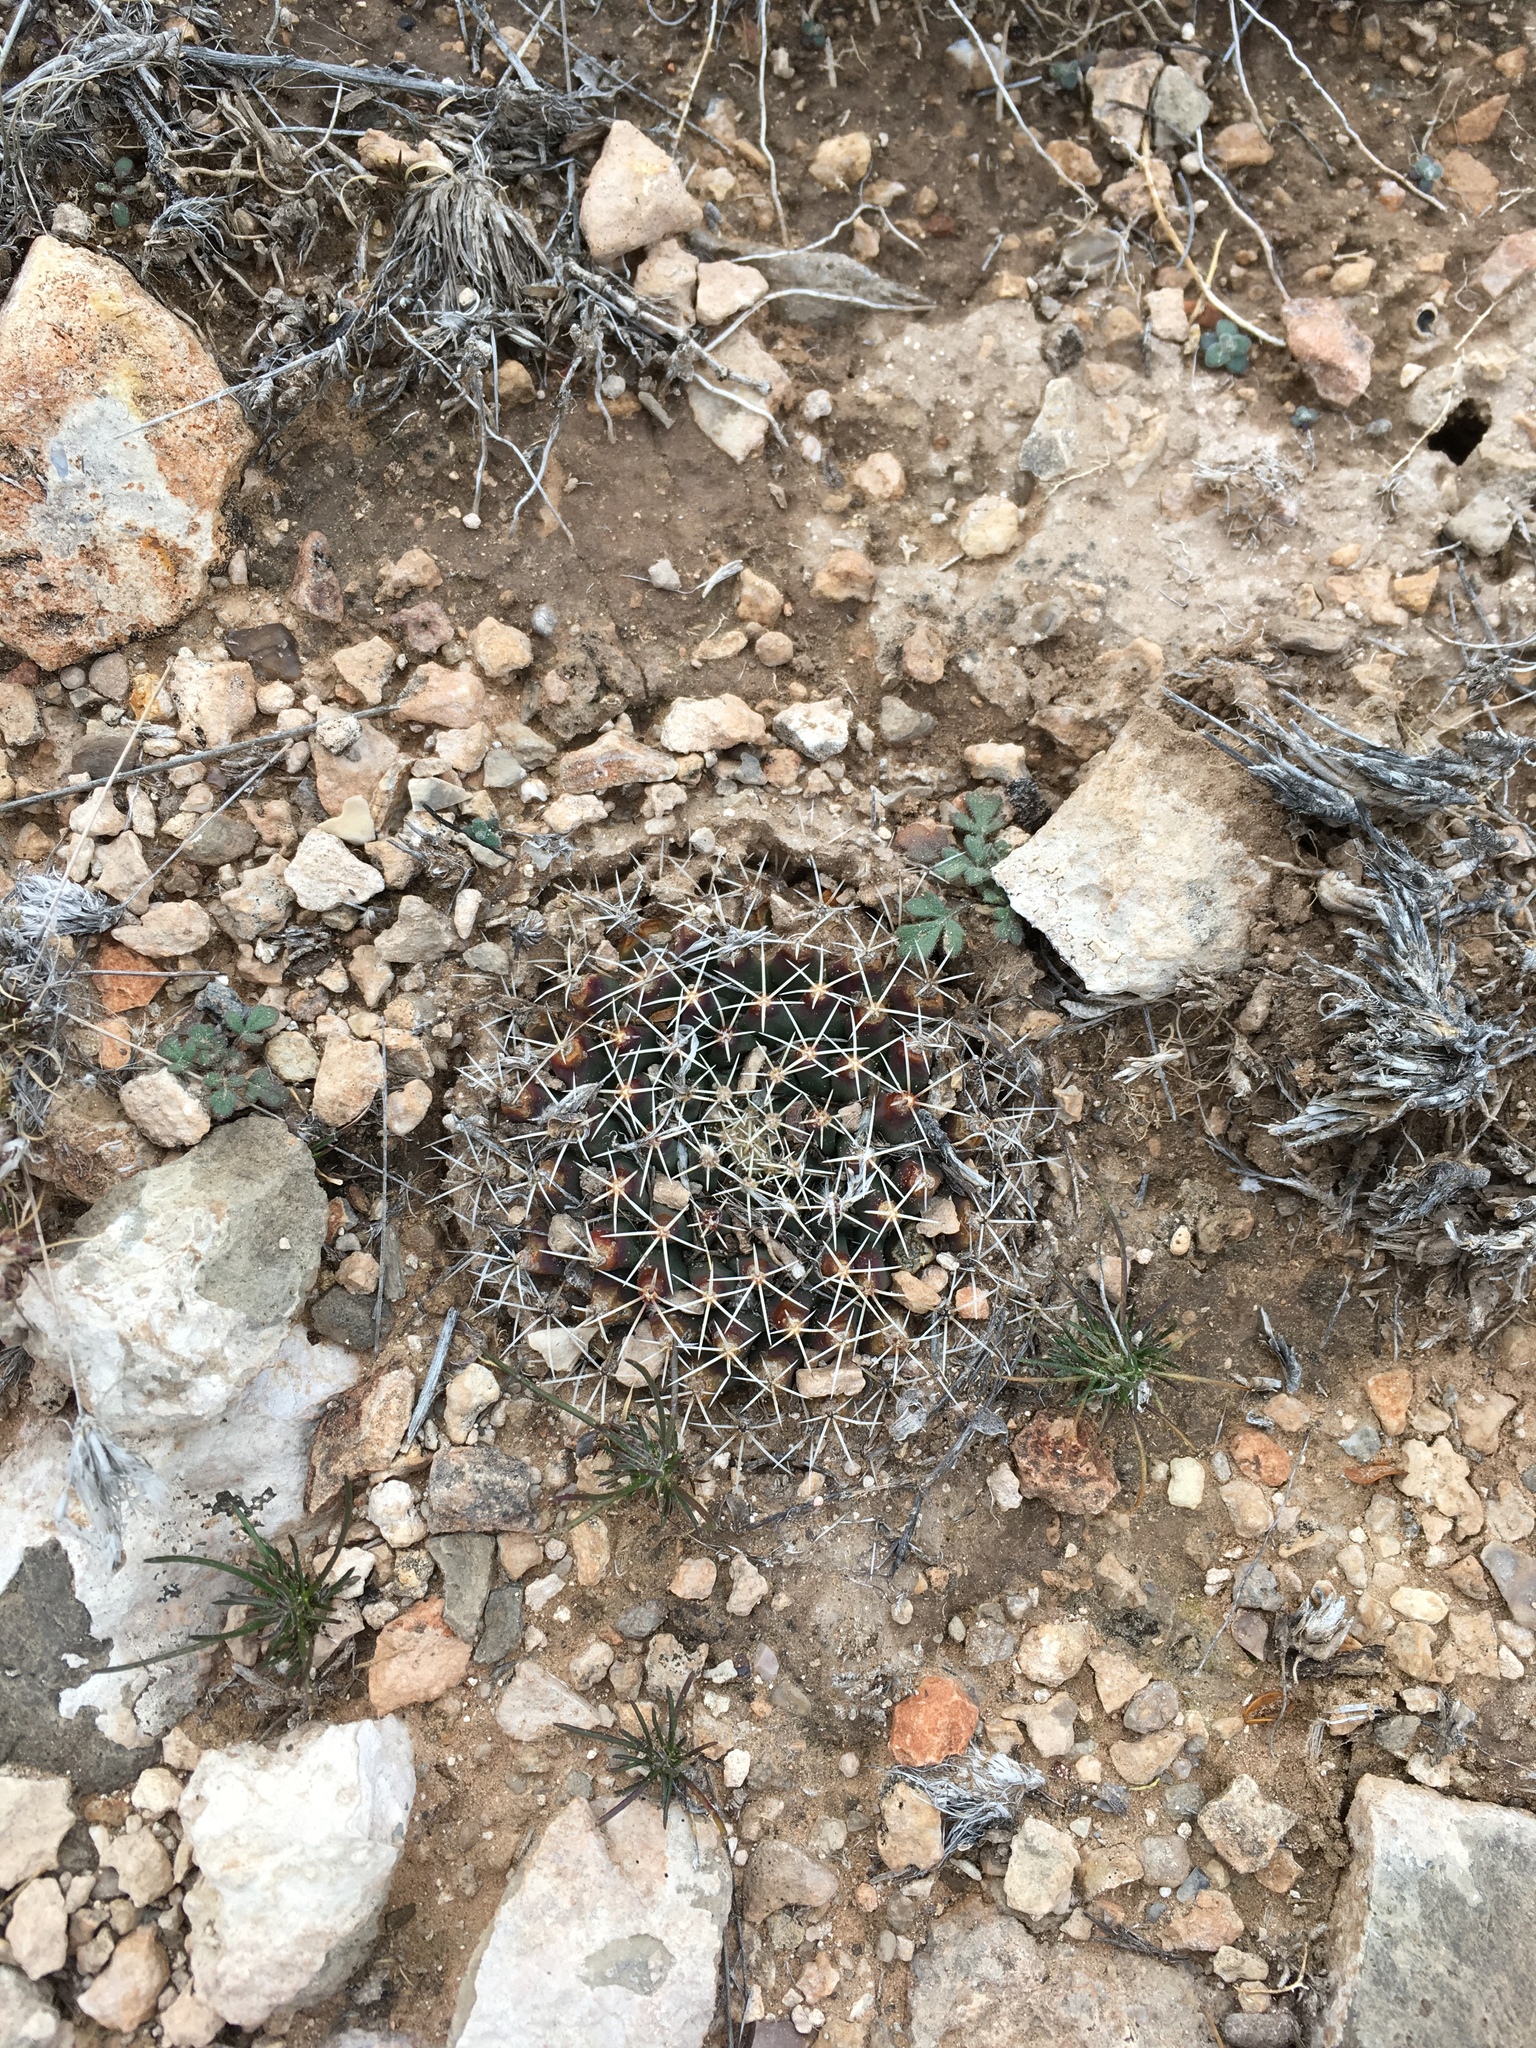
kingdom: Plantae
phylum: Tracheophyta
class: Magnoliopsida
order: Caryophyllales
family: Cactaceae
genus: Mammillaria
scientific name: Mammillaria heyderi
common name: Little nipple cactus
